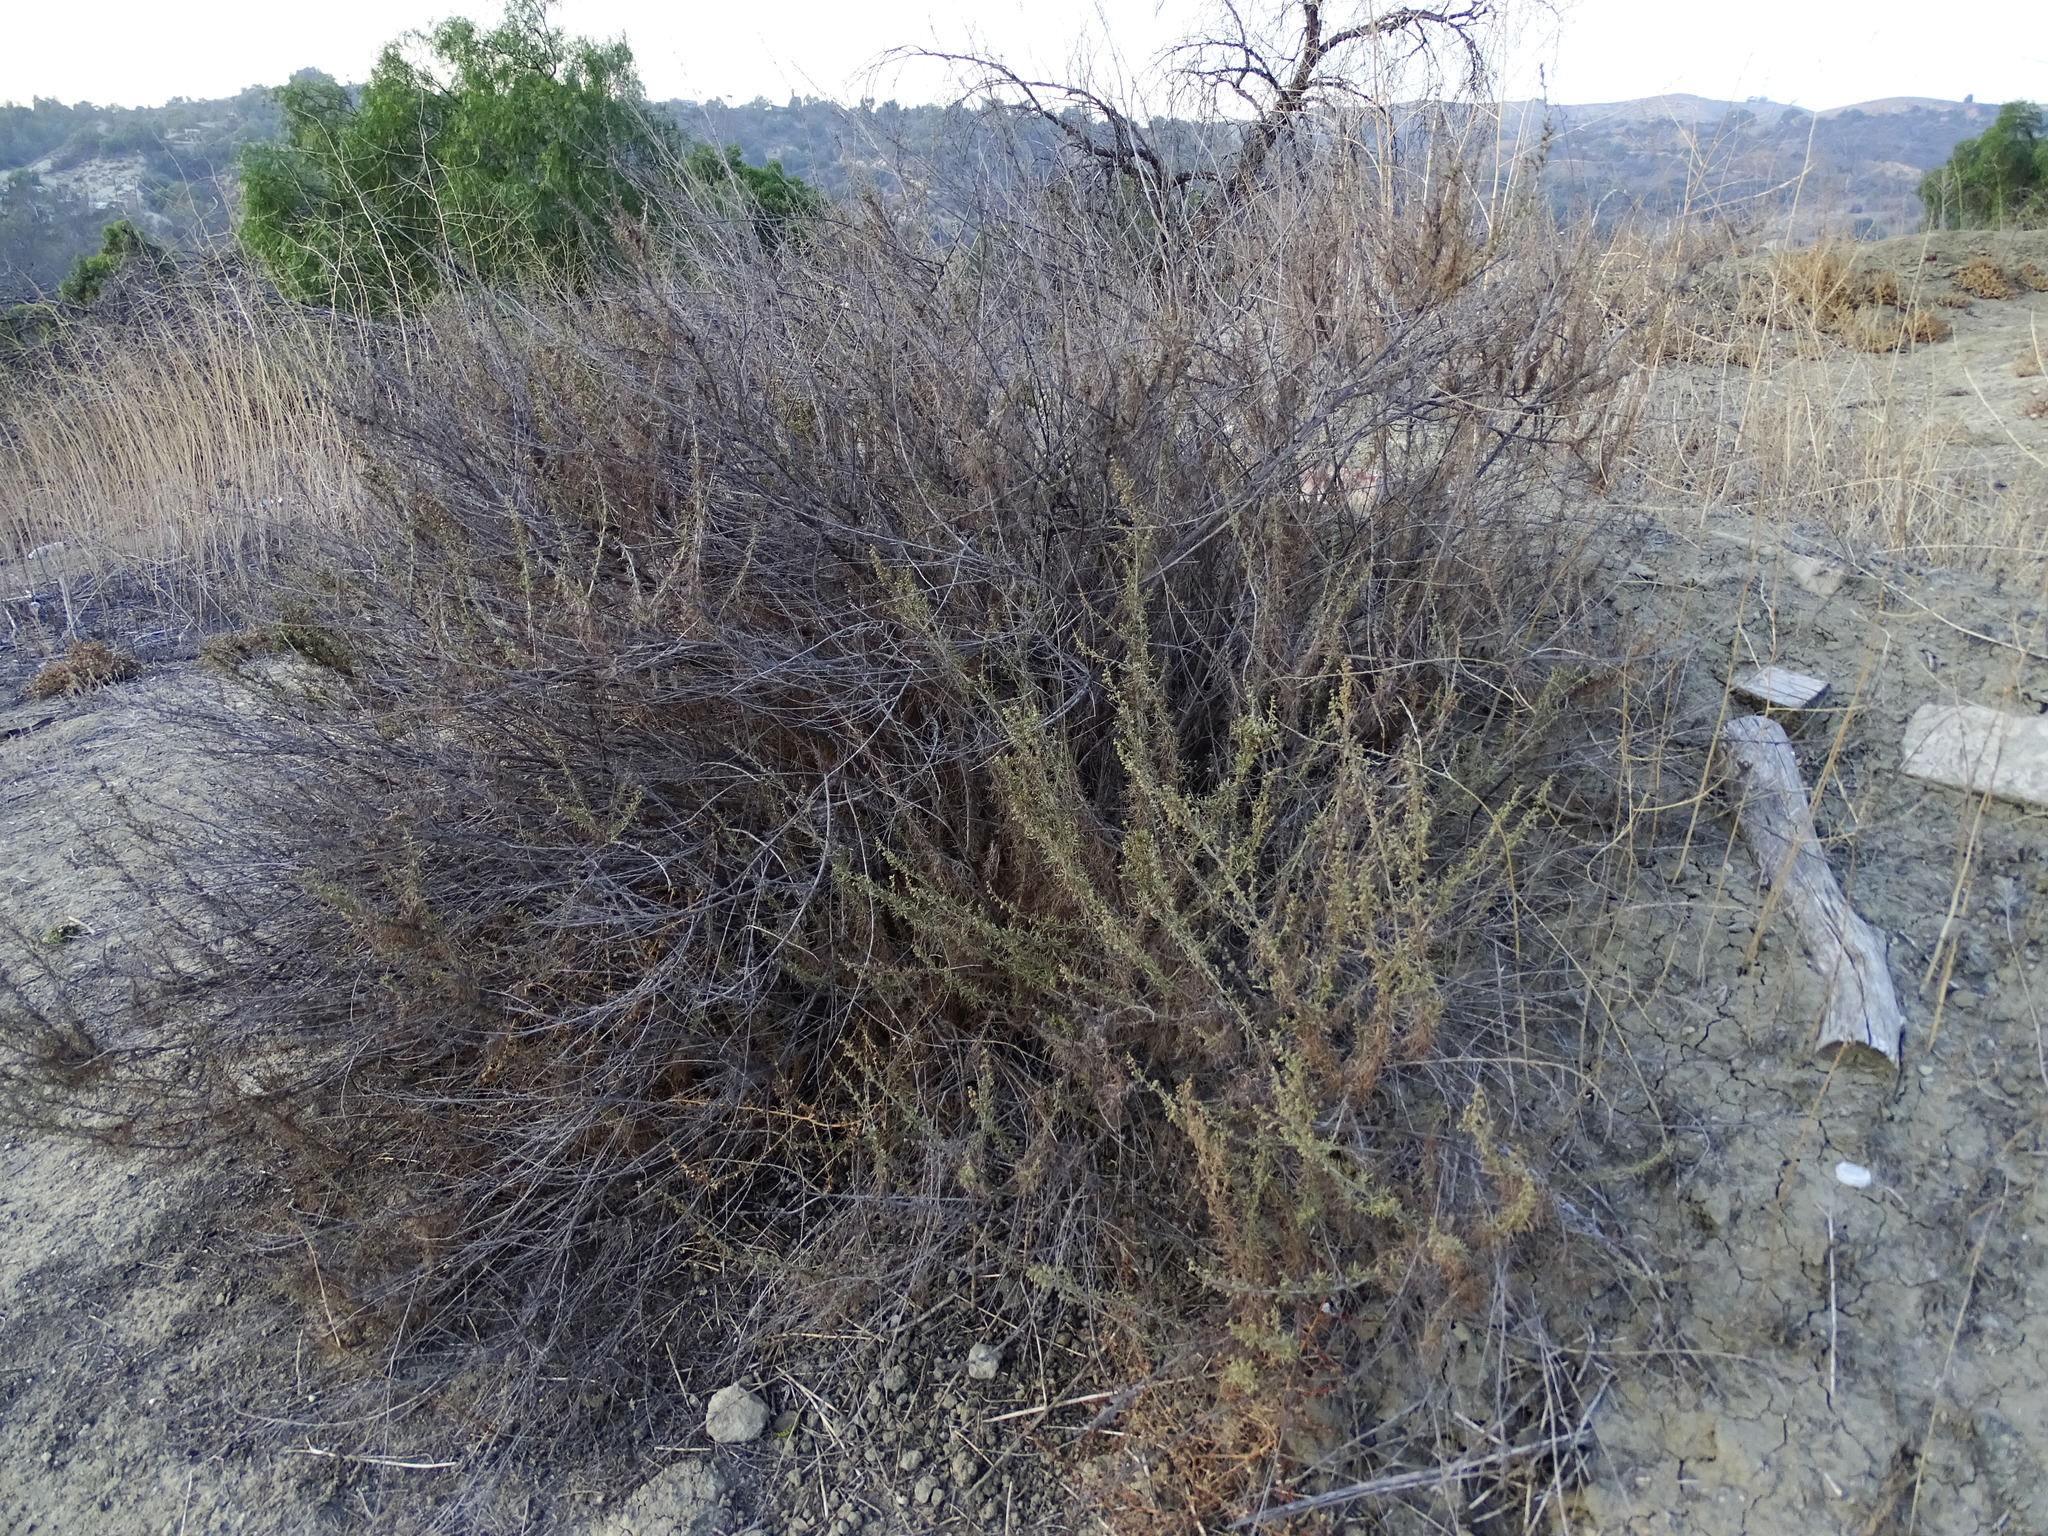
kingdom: Plantae
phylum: Tracheophyta
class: Magnoliopsida
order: Asterales
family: Asteraceae
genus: Artemisia
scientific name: Artemisia californica
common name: California sagebrush
